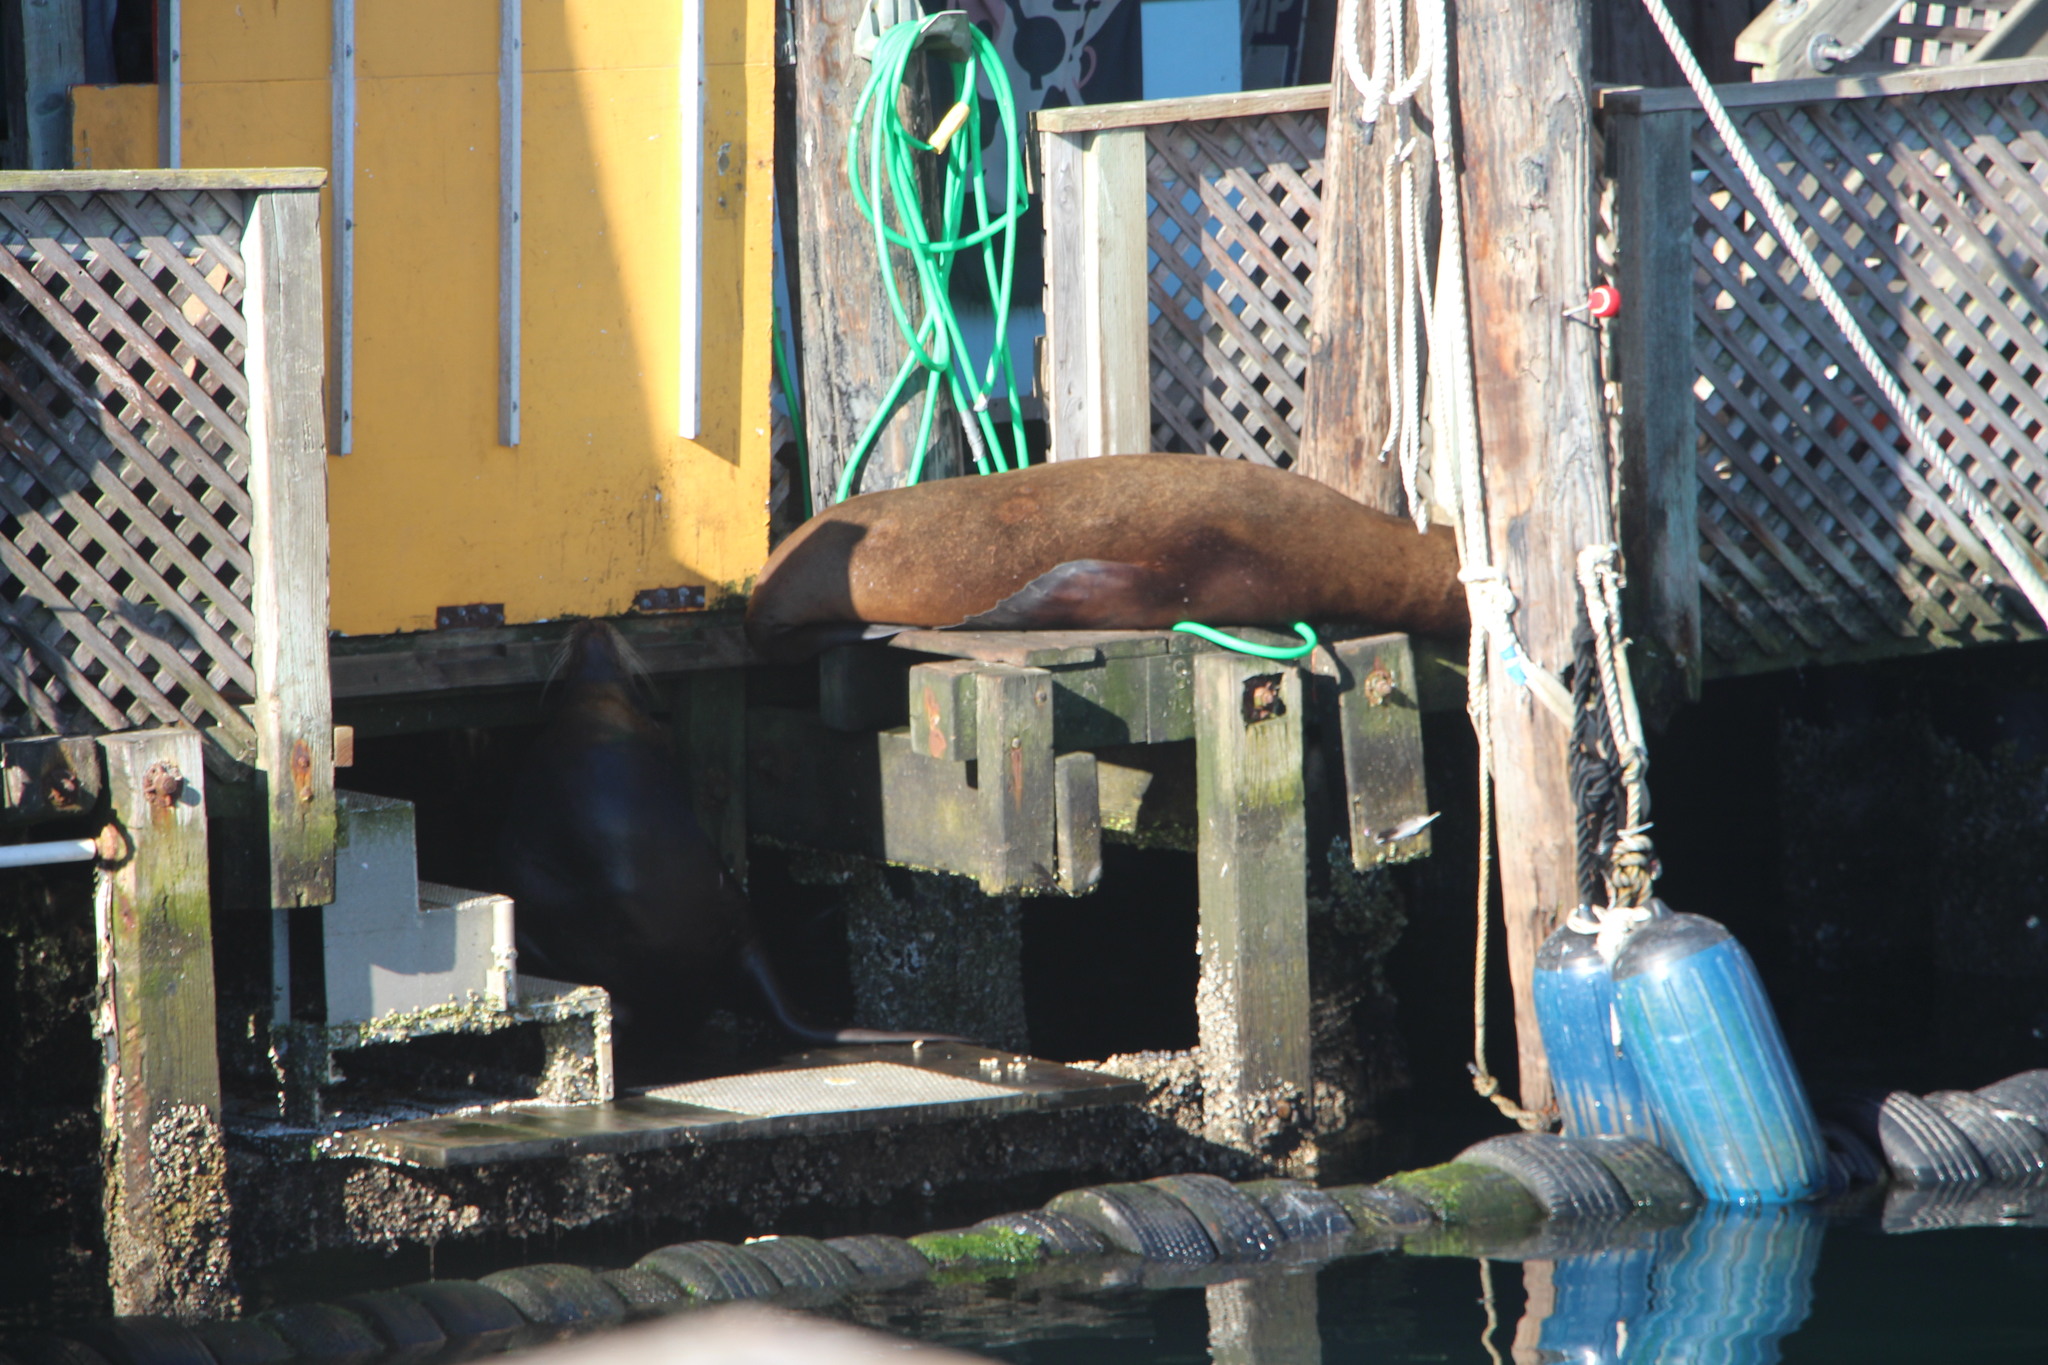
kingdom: Animalia
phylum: Chordata
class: Mammalia
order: Carnivora
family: Otariidae
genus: Zalophus
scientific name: Zalophus californianus
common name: California sea lion
